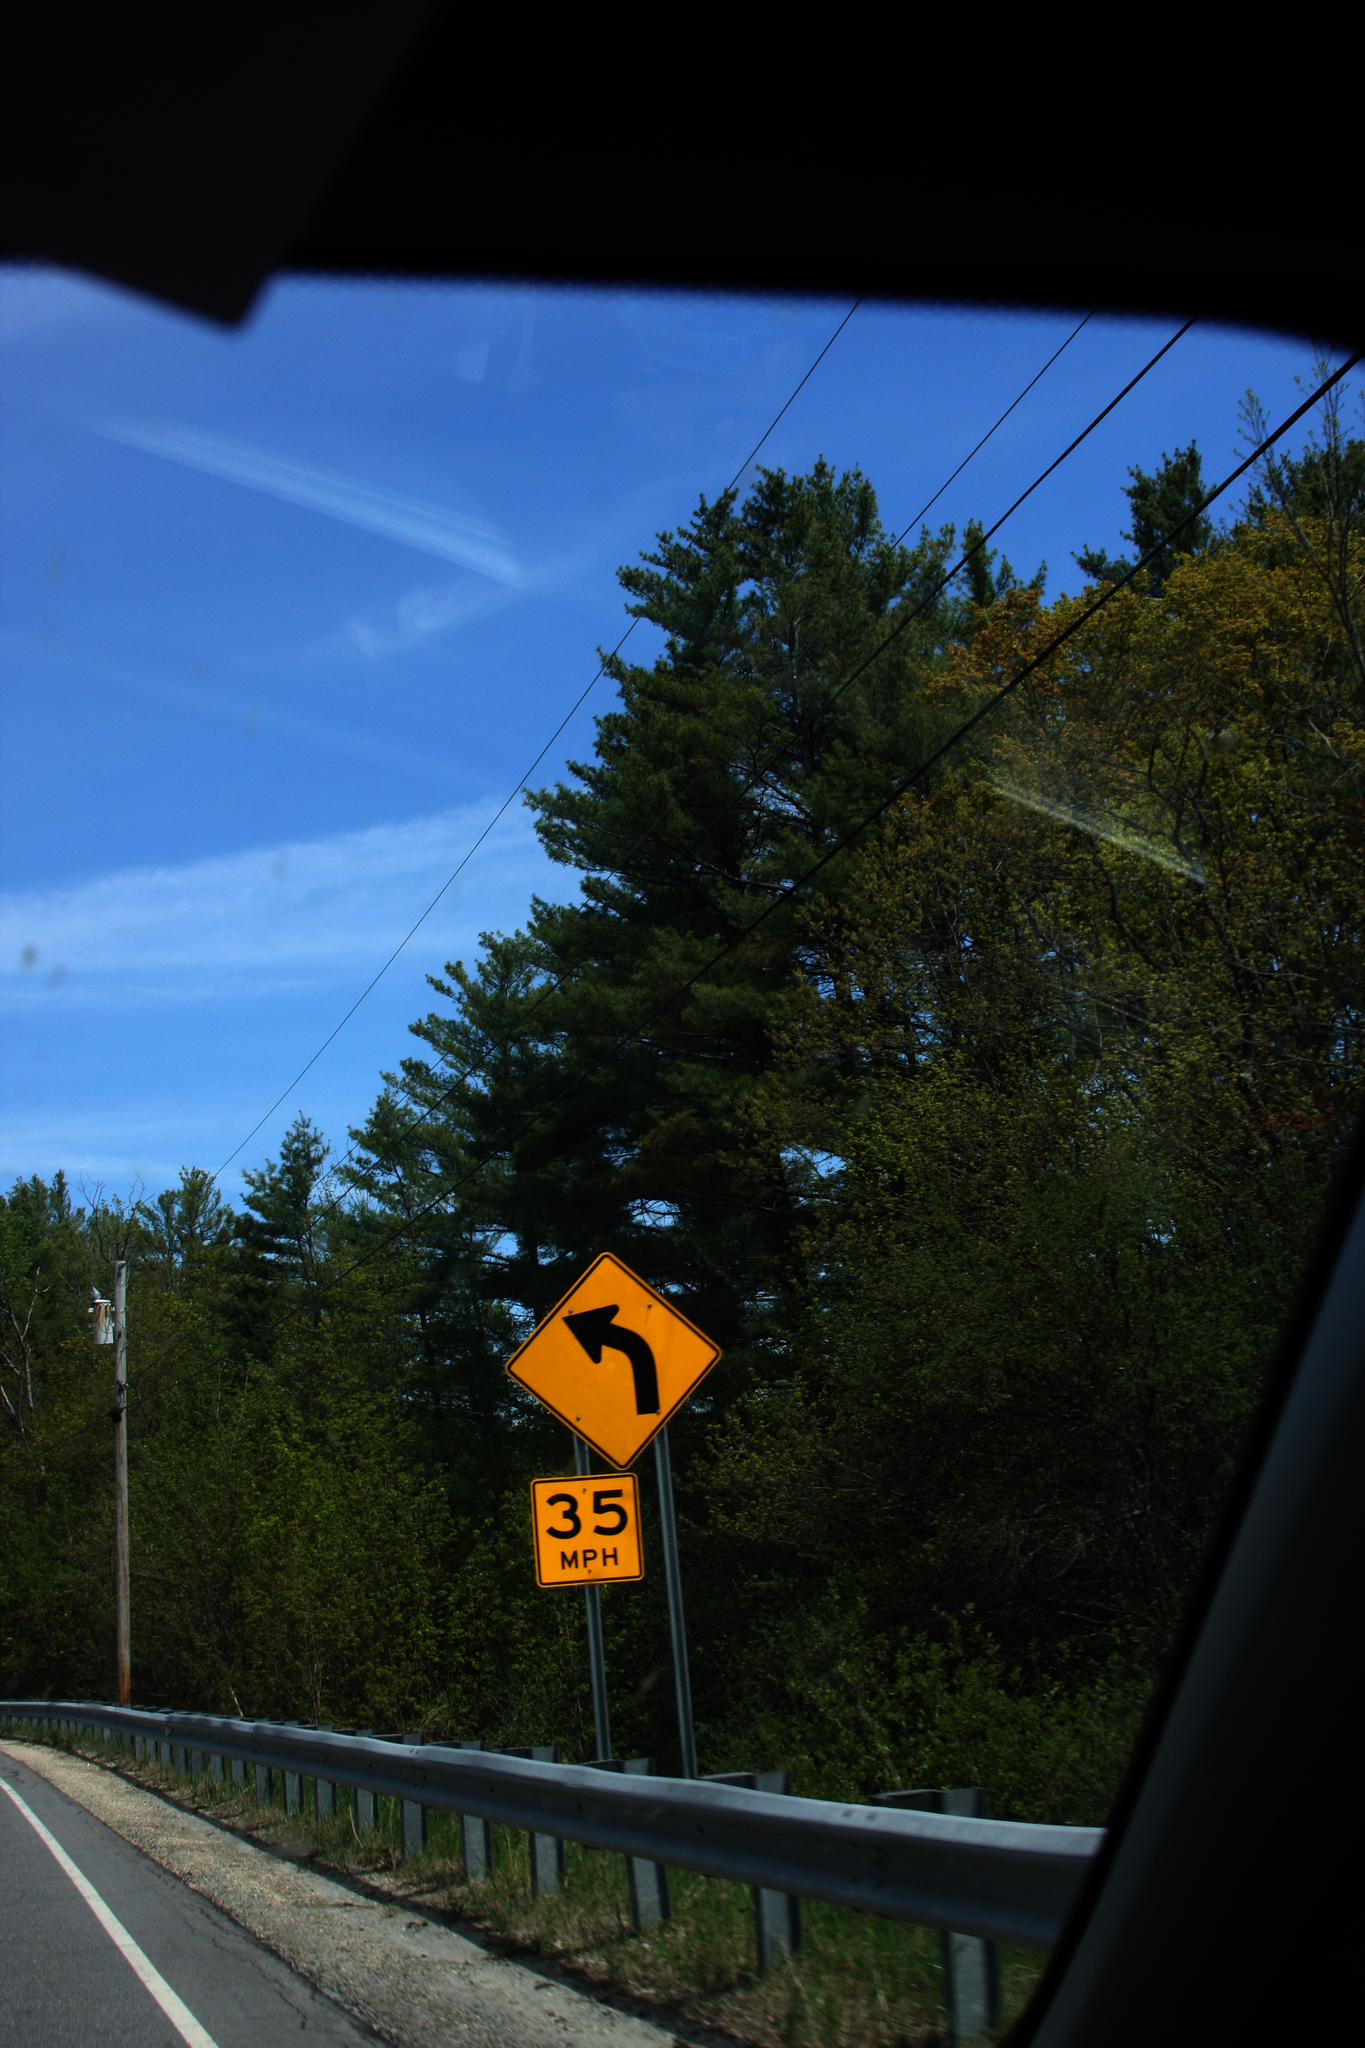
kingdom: Plantae
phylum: Tracheophyta
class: Pinopsida
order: Pinales
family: Pinaceae
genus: Pinus
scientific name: Pinus strobus
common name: Weymouth pine
